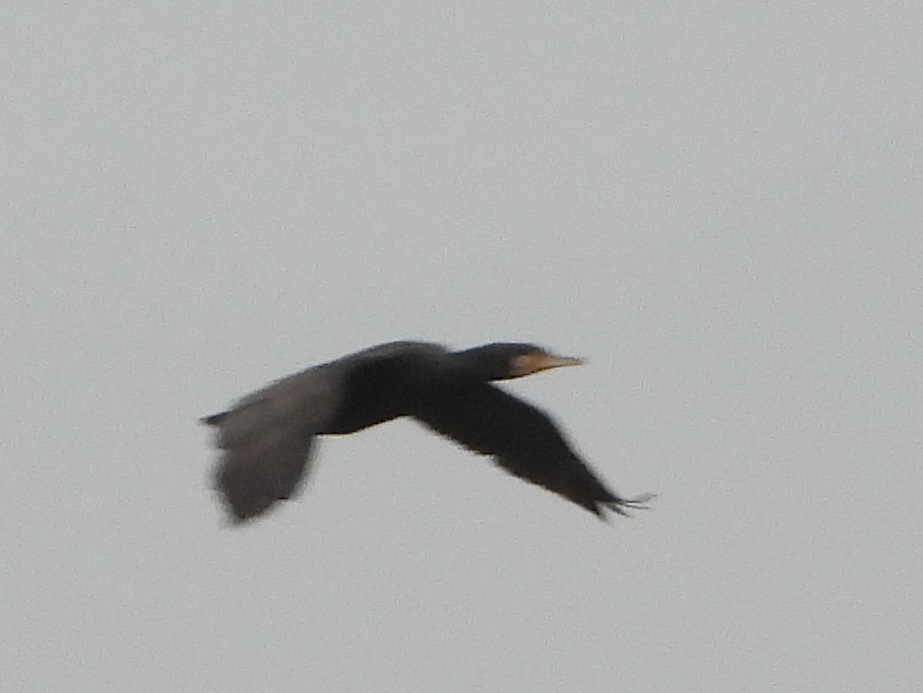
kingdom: Animalia
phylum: Chordata
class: Aves
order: Suliformes
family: Phalacrocoracidae
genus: Phalacrocorax
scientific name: Phalacrocorax carbo
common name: Great cormorant
